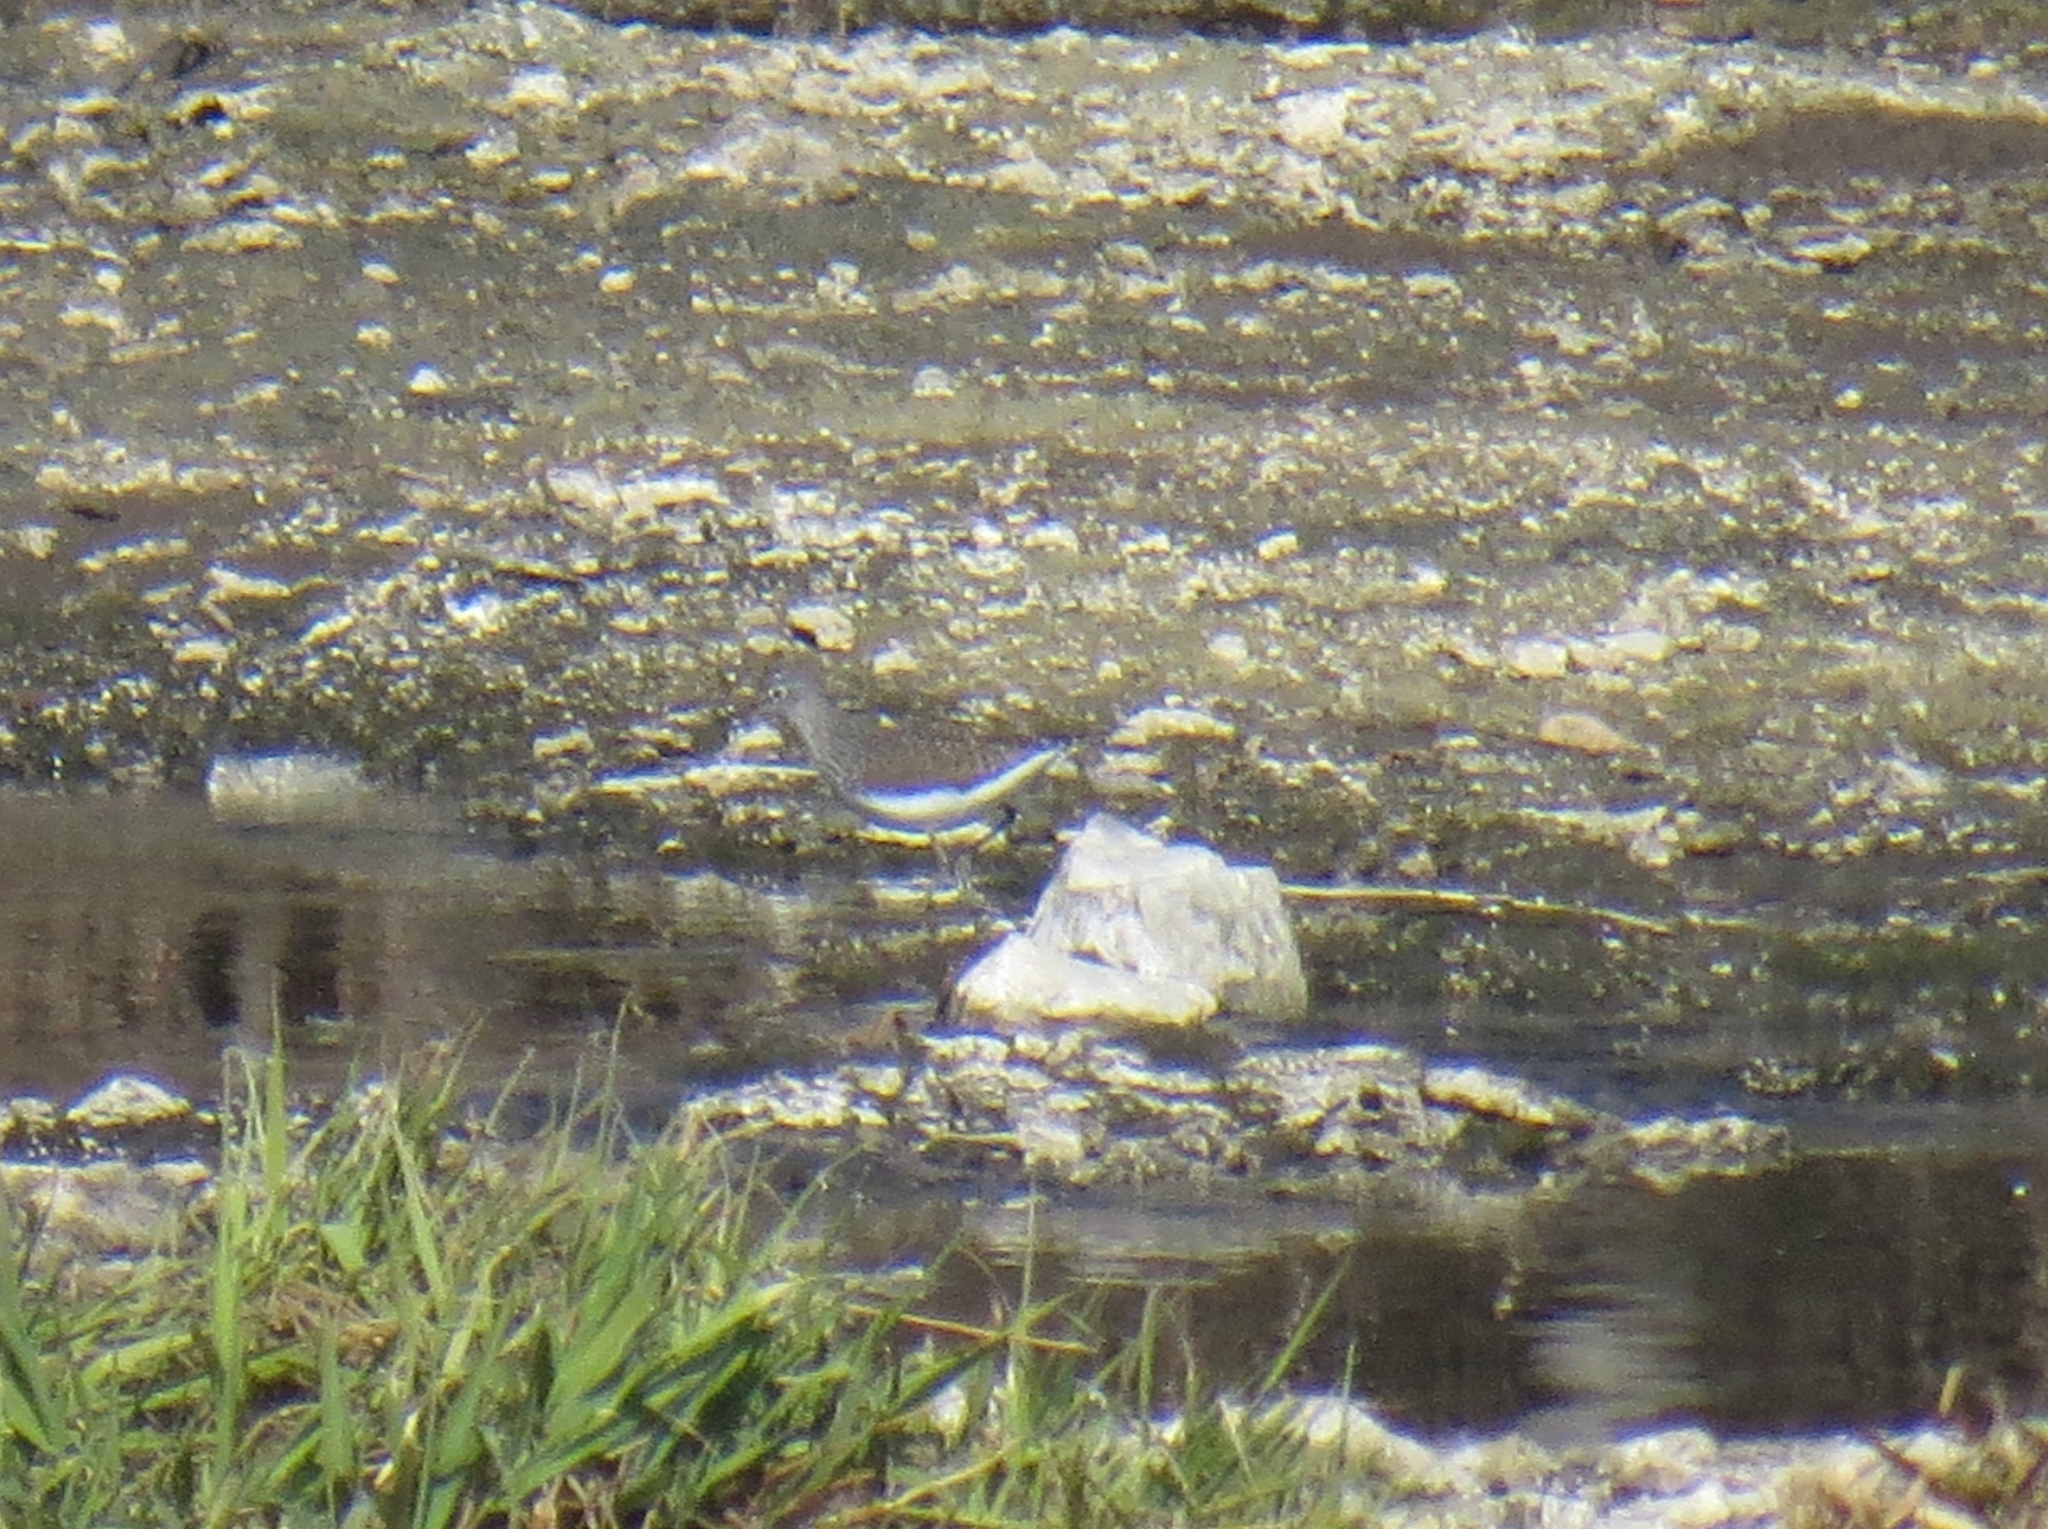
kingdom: Animalia
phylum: Chordata
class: Aves
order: Charadriiformes
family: Scolopacidae
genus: Tringa
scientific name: Tringa ochropus
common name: Green sandpiper
